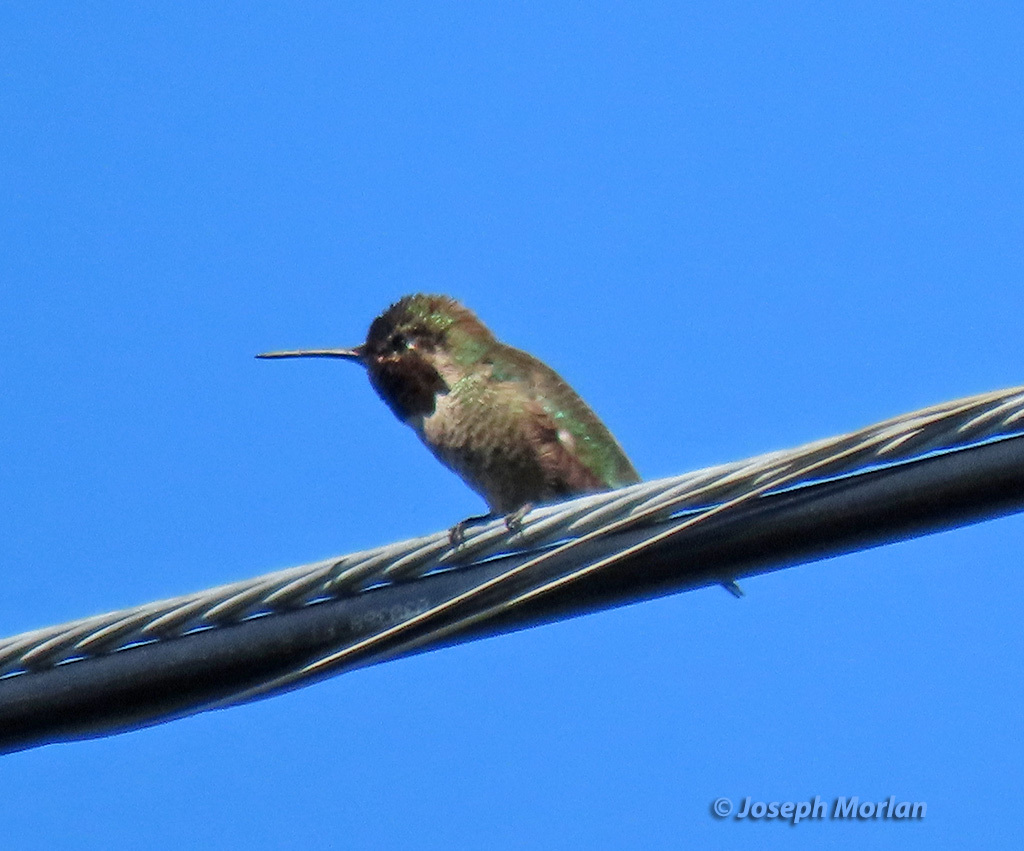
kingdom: Animalia
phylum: Chordata
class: Aves
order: Apodiformes
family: Trochilidae
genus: Calypte
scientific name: Calypte anna
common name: Anna's hummingbird
